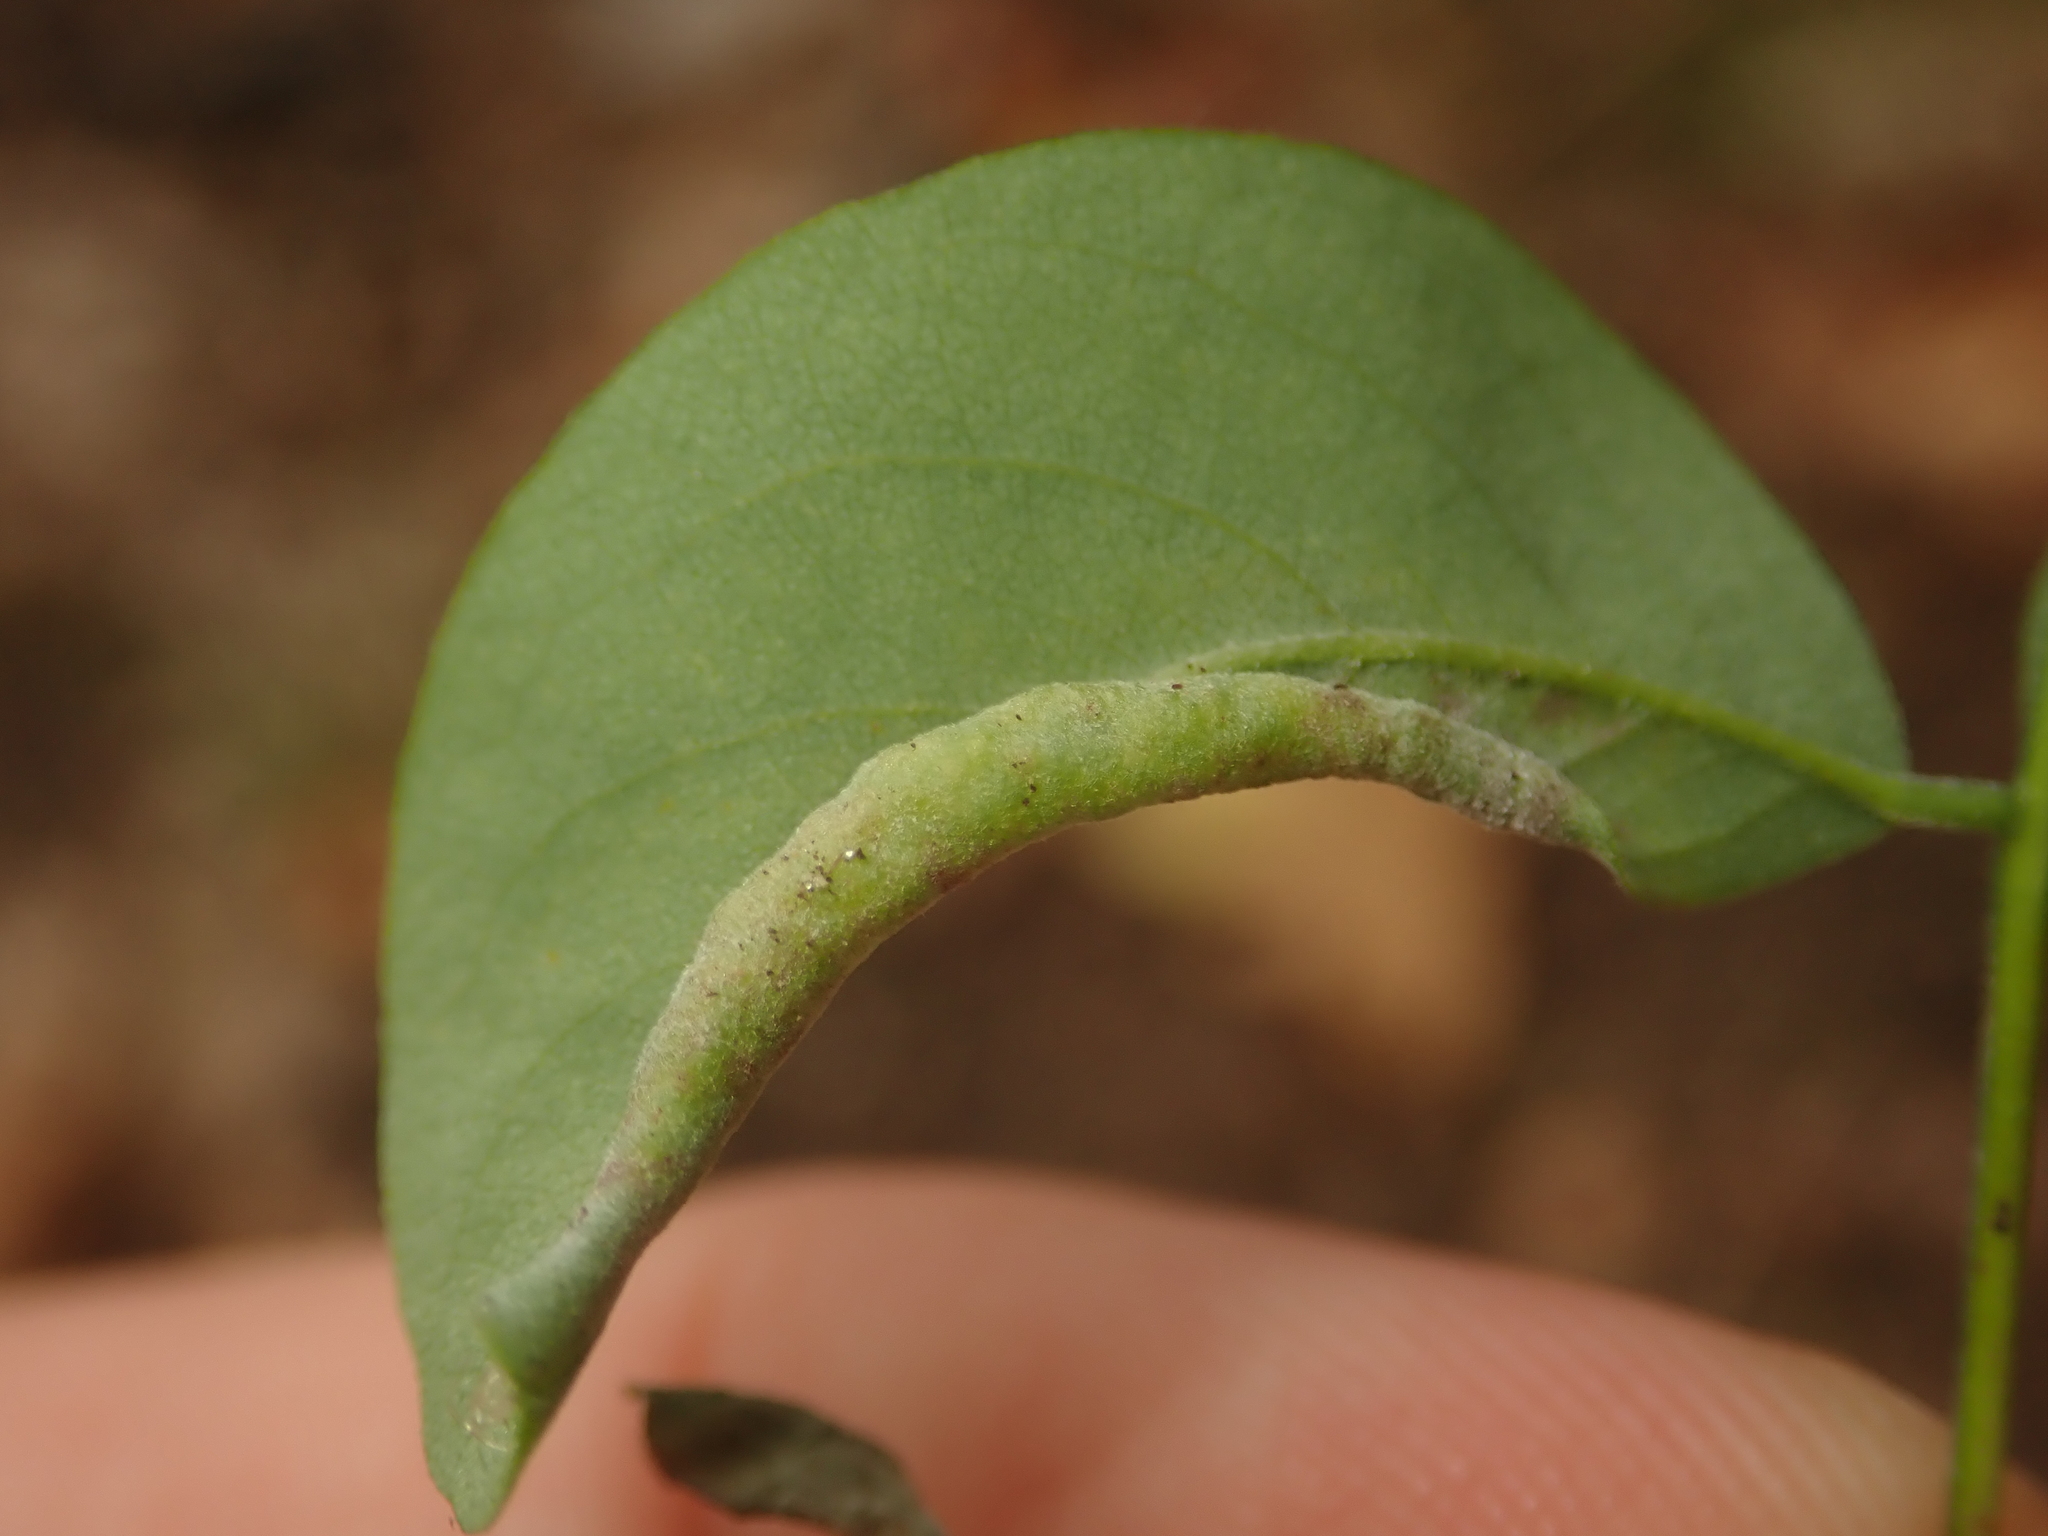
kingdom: Animalia
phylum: Arthropoda
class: Insecta
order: Diptera
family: Cecidomyiidae
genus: Obolodiplosis
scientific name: Obolodiplosis robiniae
